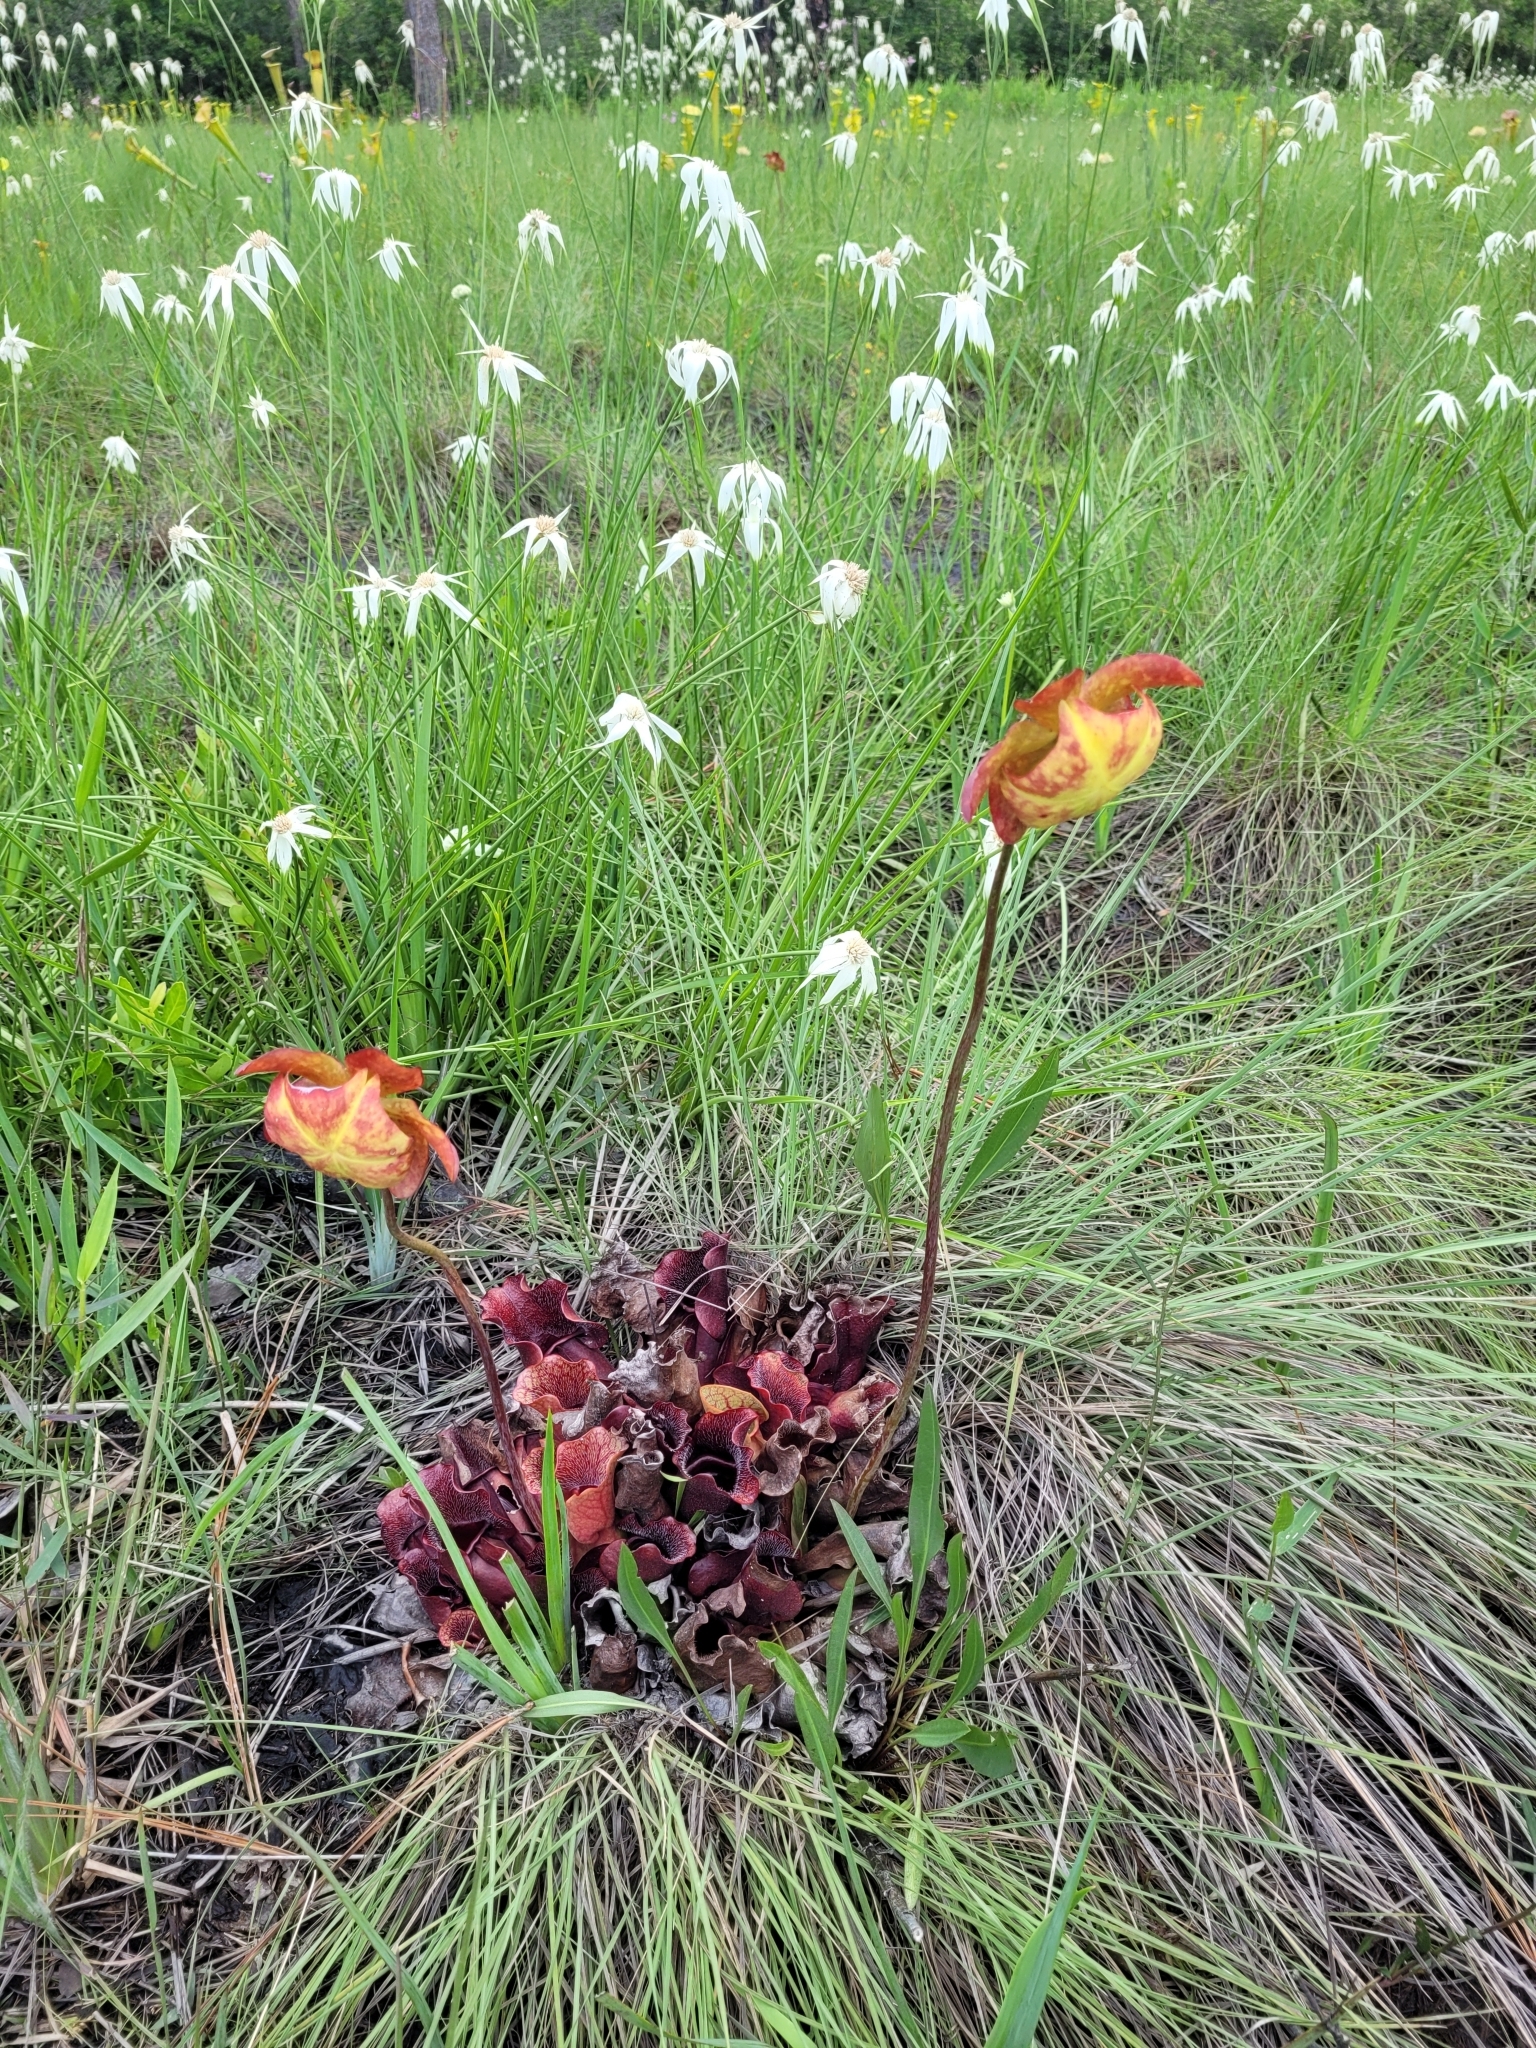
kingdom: Plantae
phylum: Tracheophyta
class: Magnoliopsida
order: Ericales
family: Sarraceniaceae
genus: Sarracenia
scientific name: Sarracenia purpurea
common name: Pitcherplant
